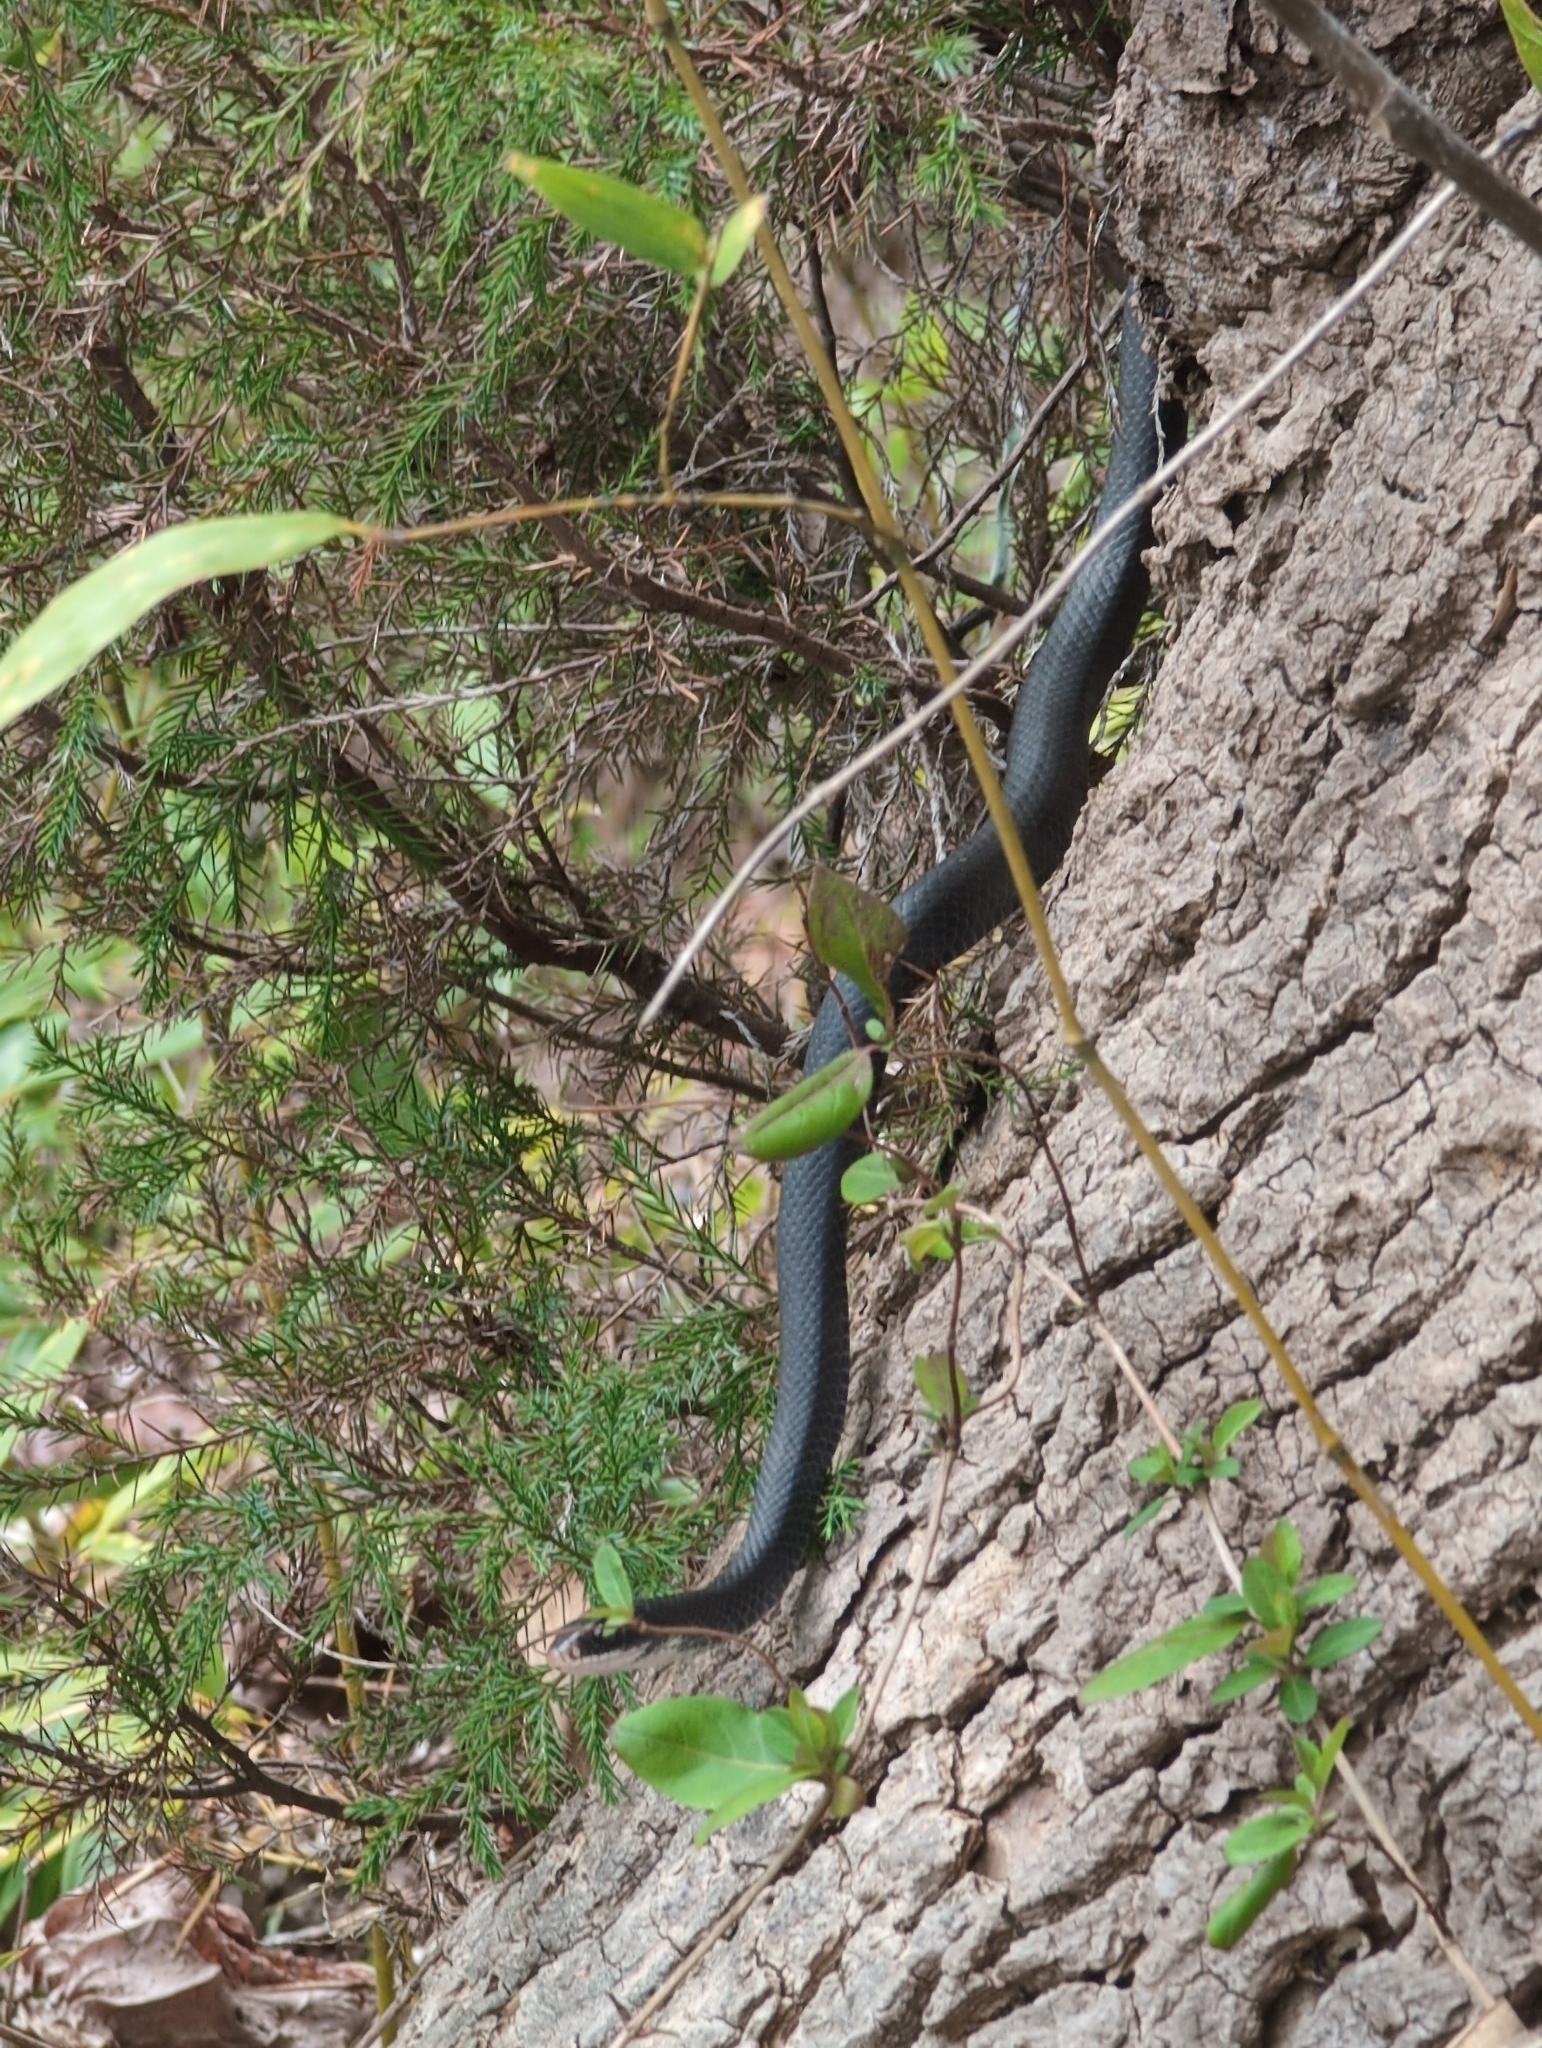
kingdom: Animalia
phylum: Chordata
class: Squamata
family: Colubridae
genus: Coluber
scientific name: Coluber constrictor
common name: Eastern racer
